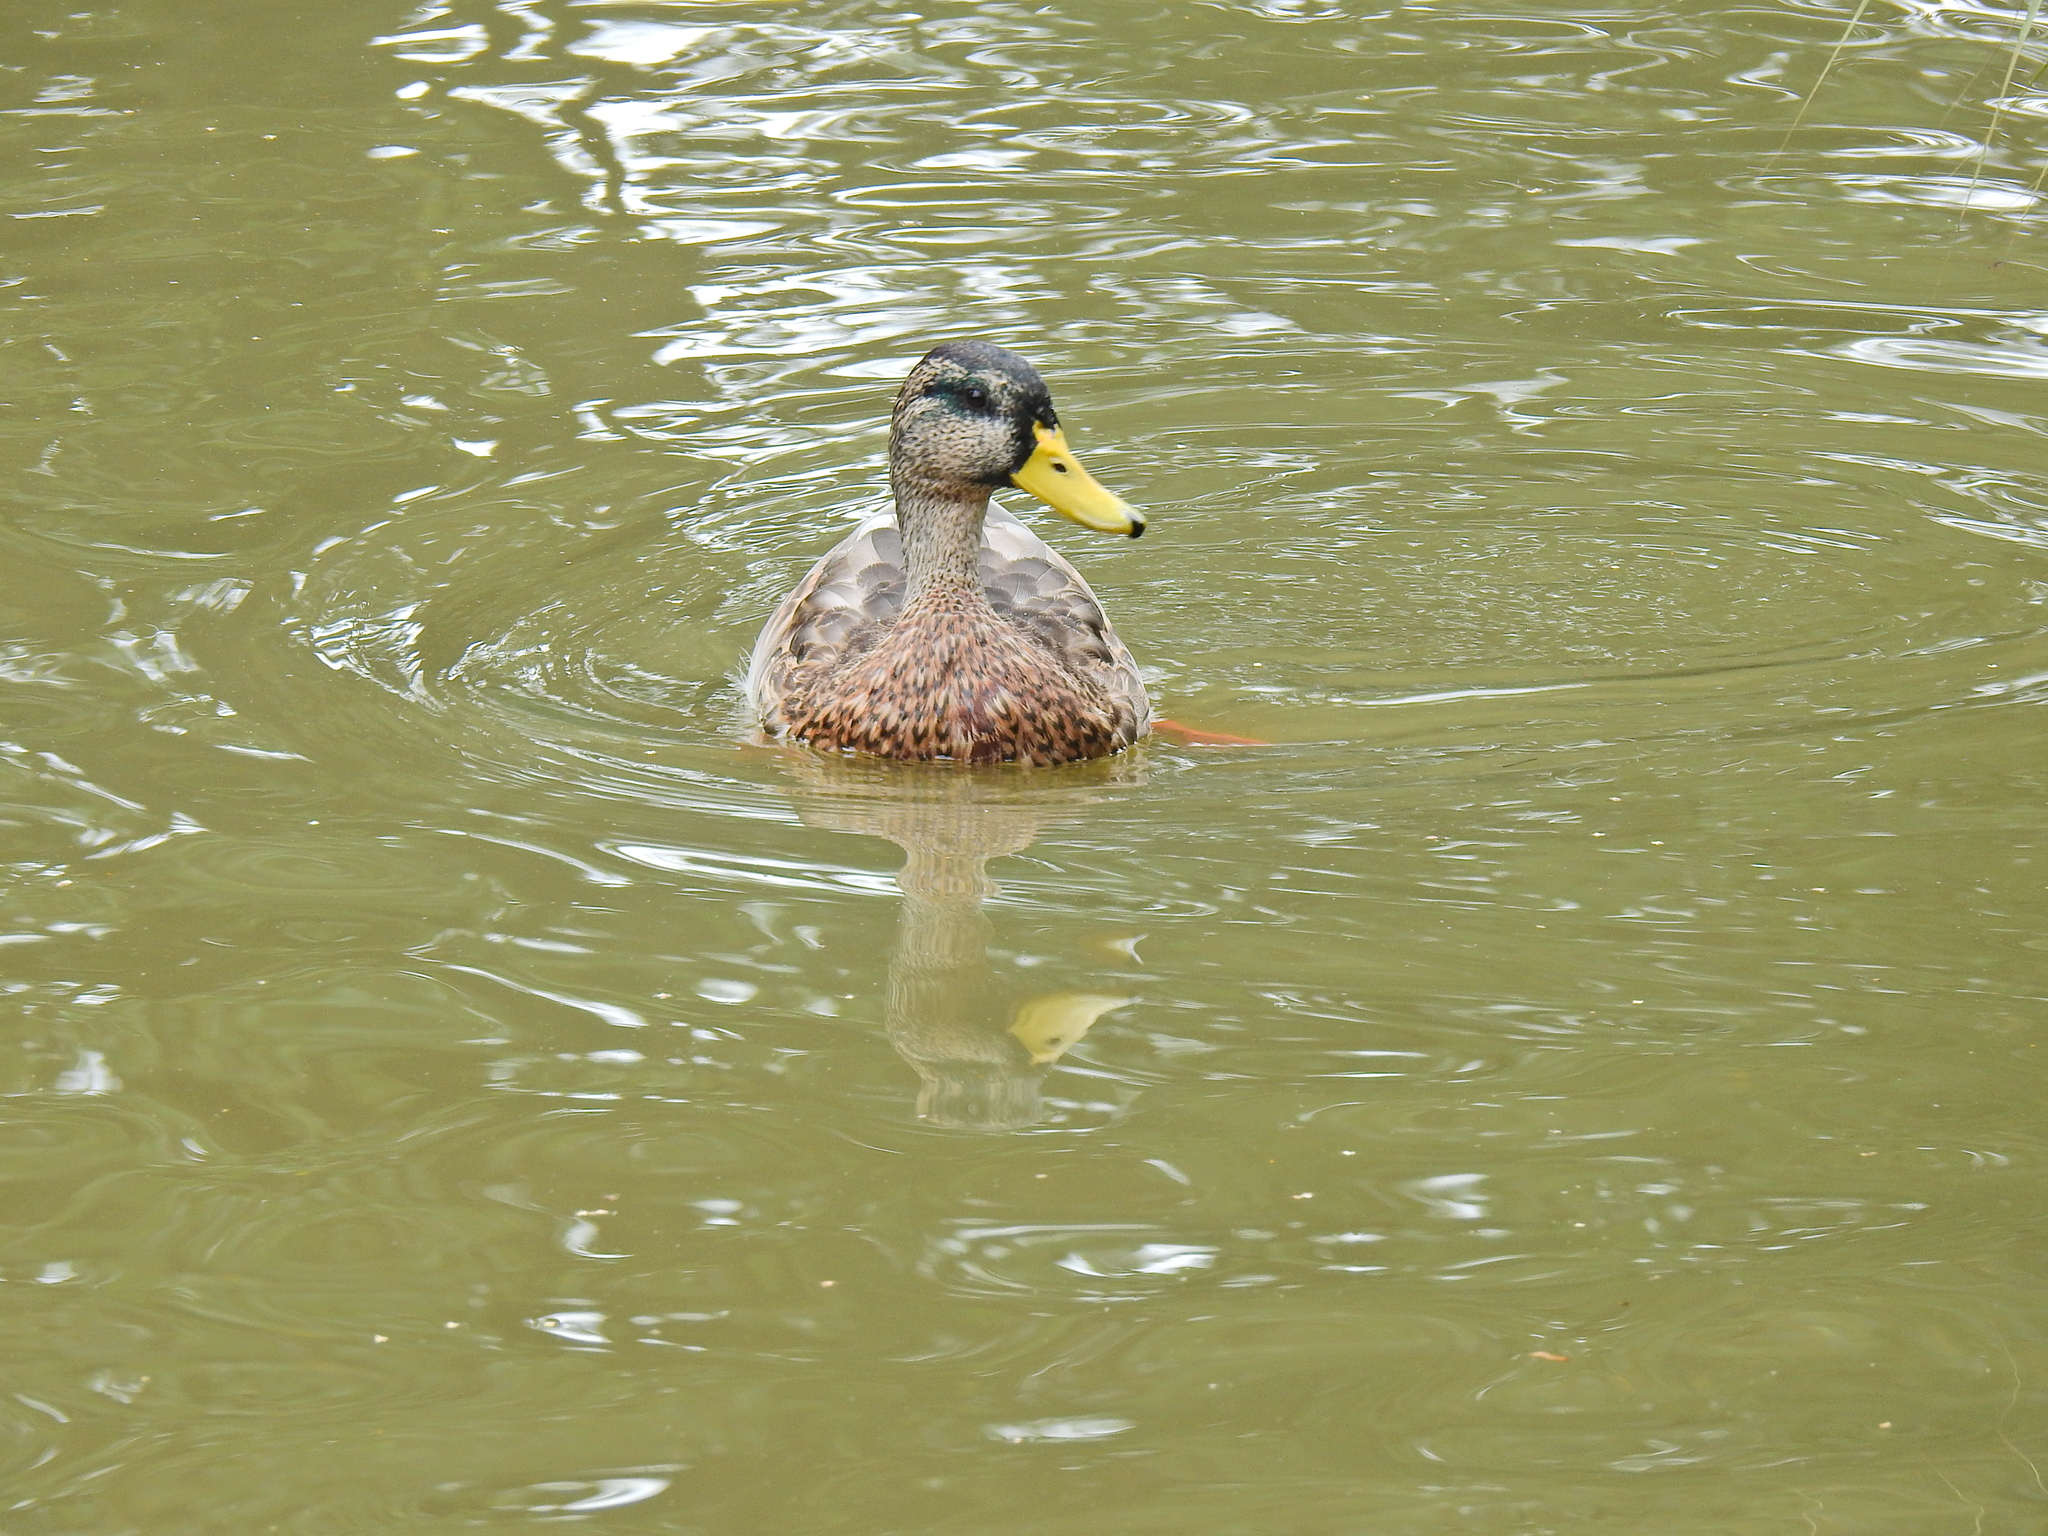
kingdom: Animalia
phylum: Chordata
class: Aves
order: Anseriformes
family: Anatidae
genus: Anas
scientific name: Anas platyrhynchos
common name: Mallard
